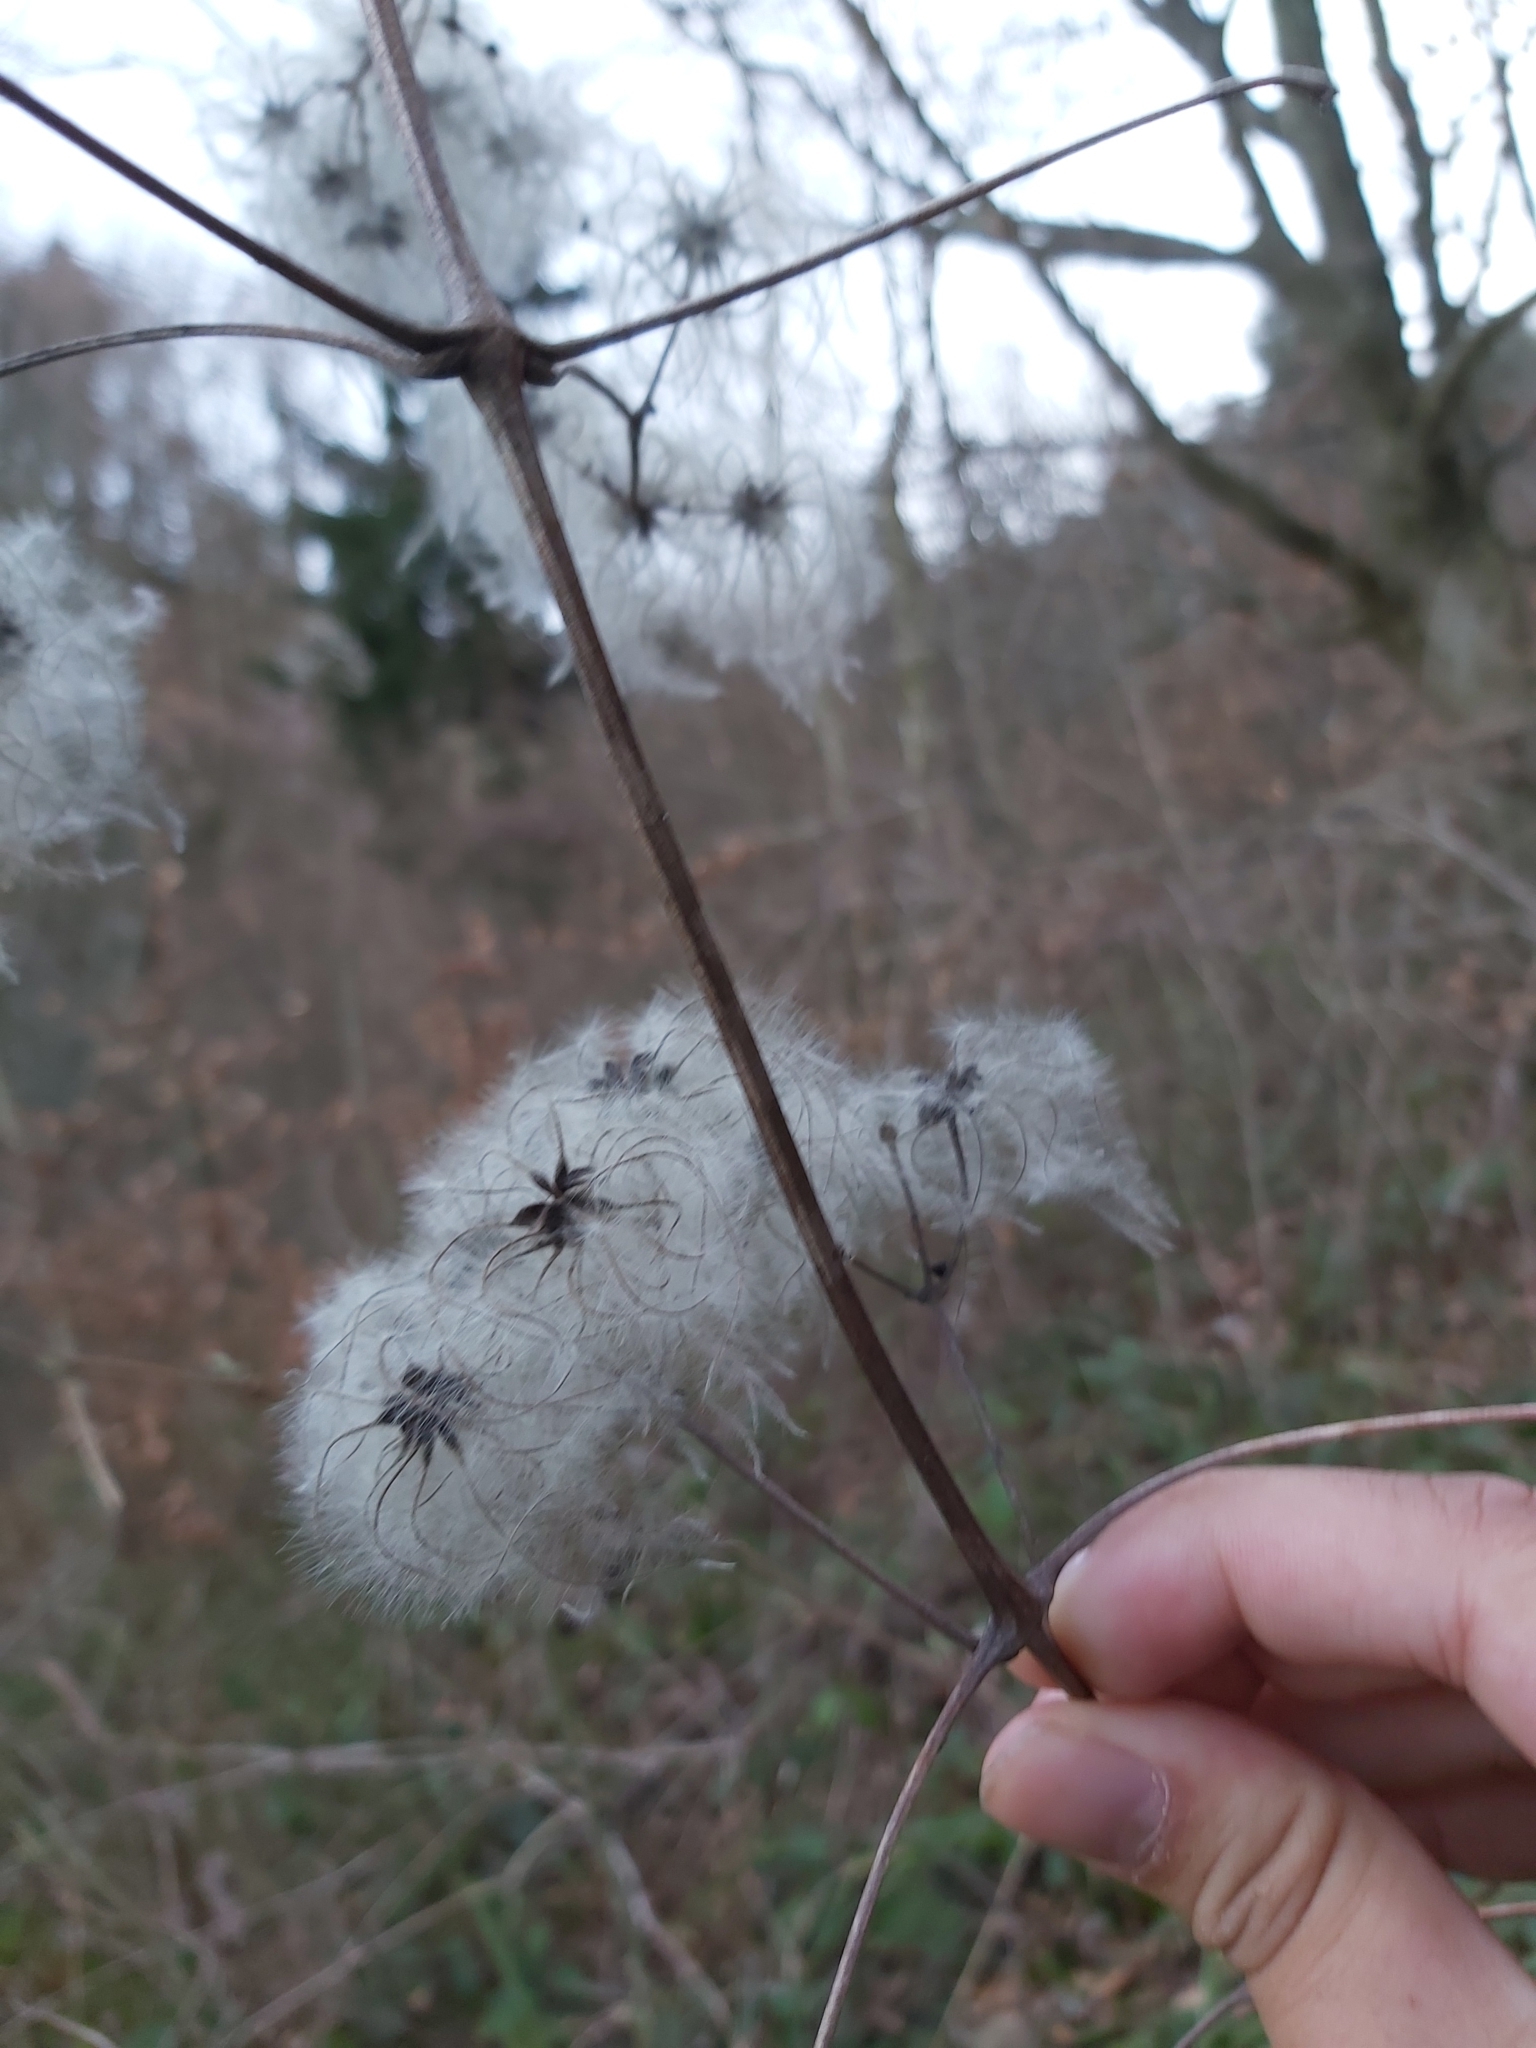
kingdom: Plantae
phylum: Tracheophyta
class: Magnoliopsida
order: Ranunculales
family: Ranunculaceae
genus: Clematis
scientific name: Clematis vitalba
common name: Evergreen clematis
